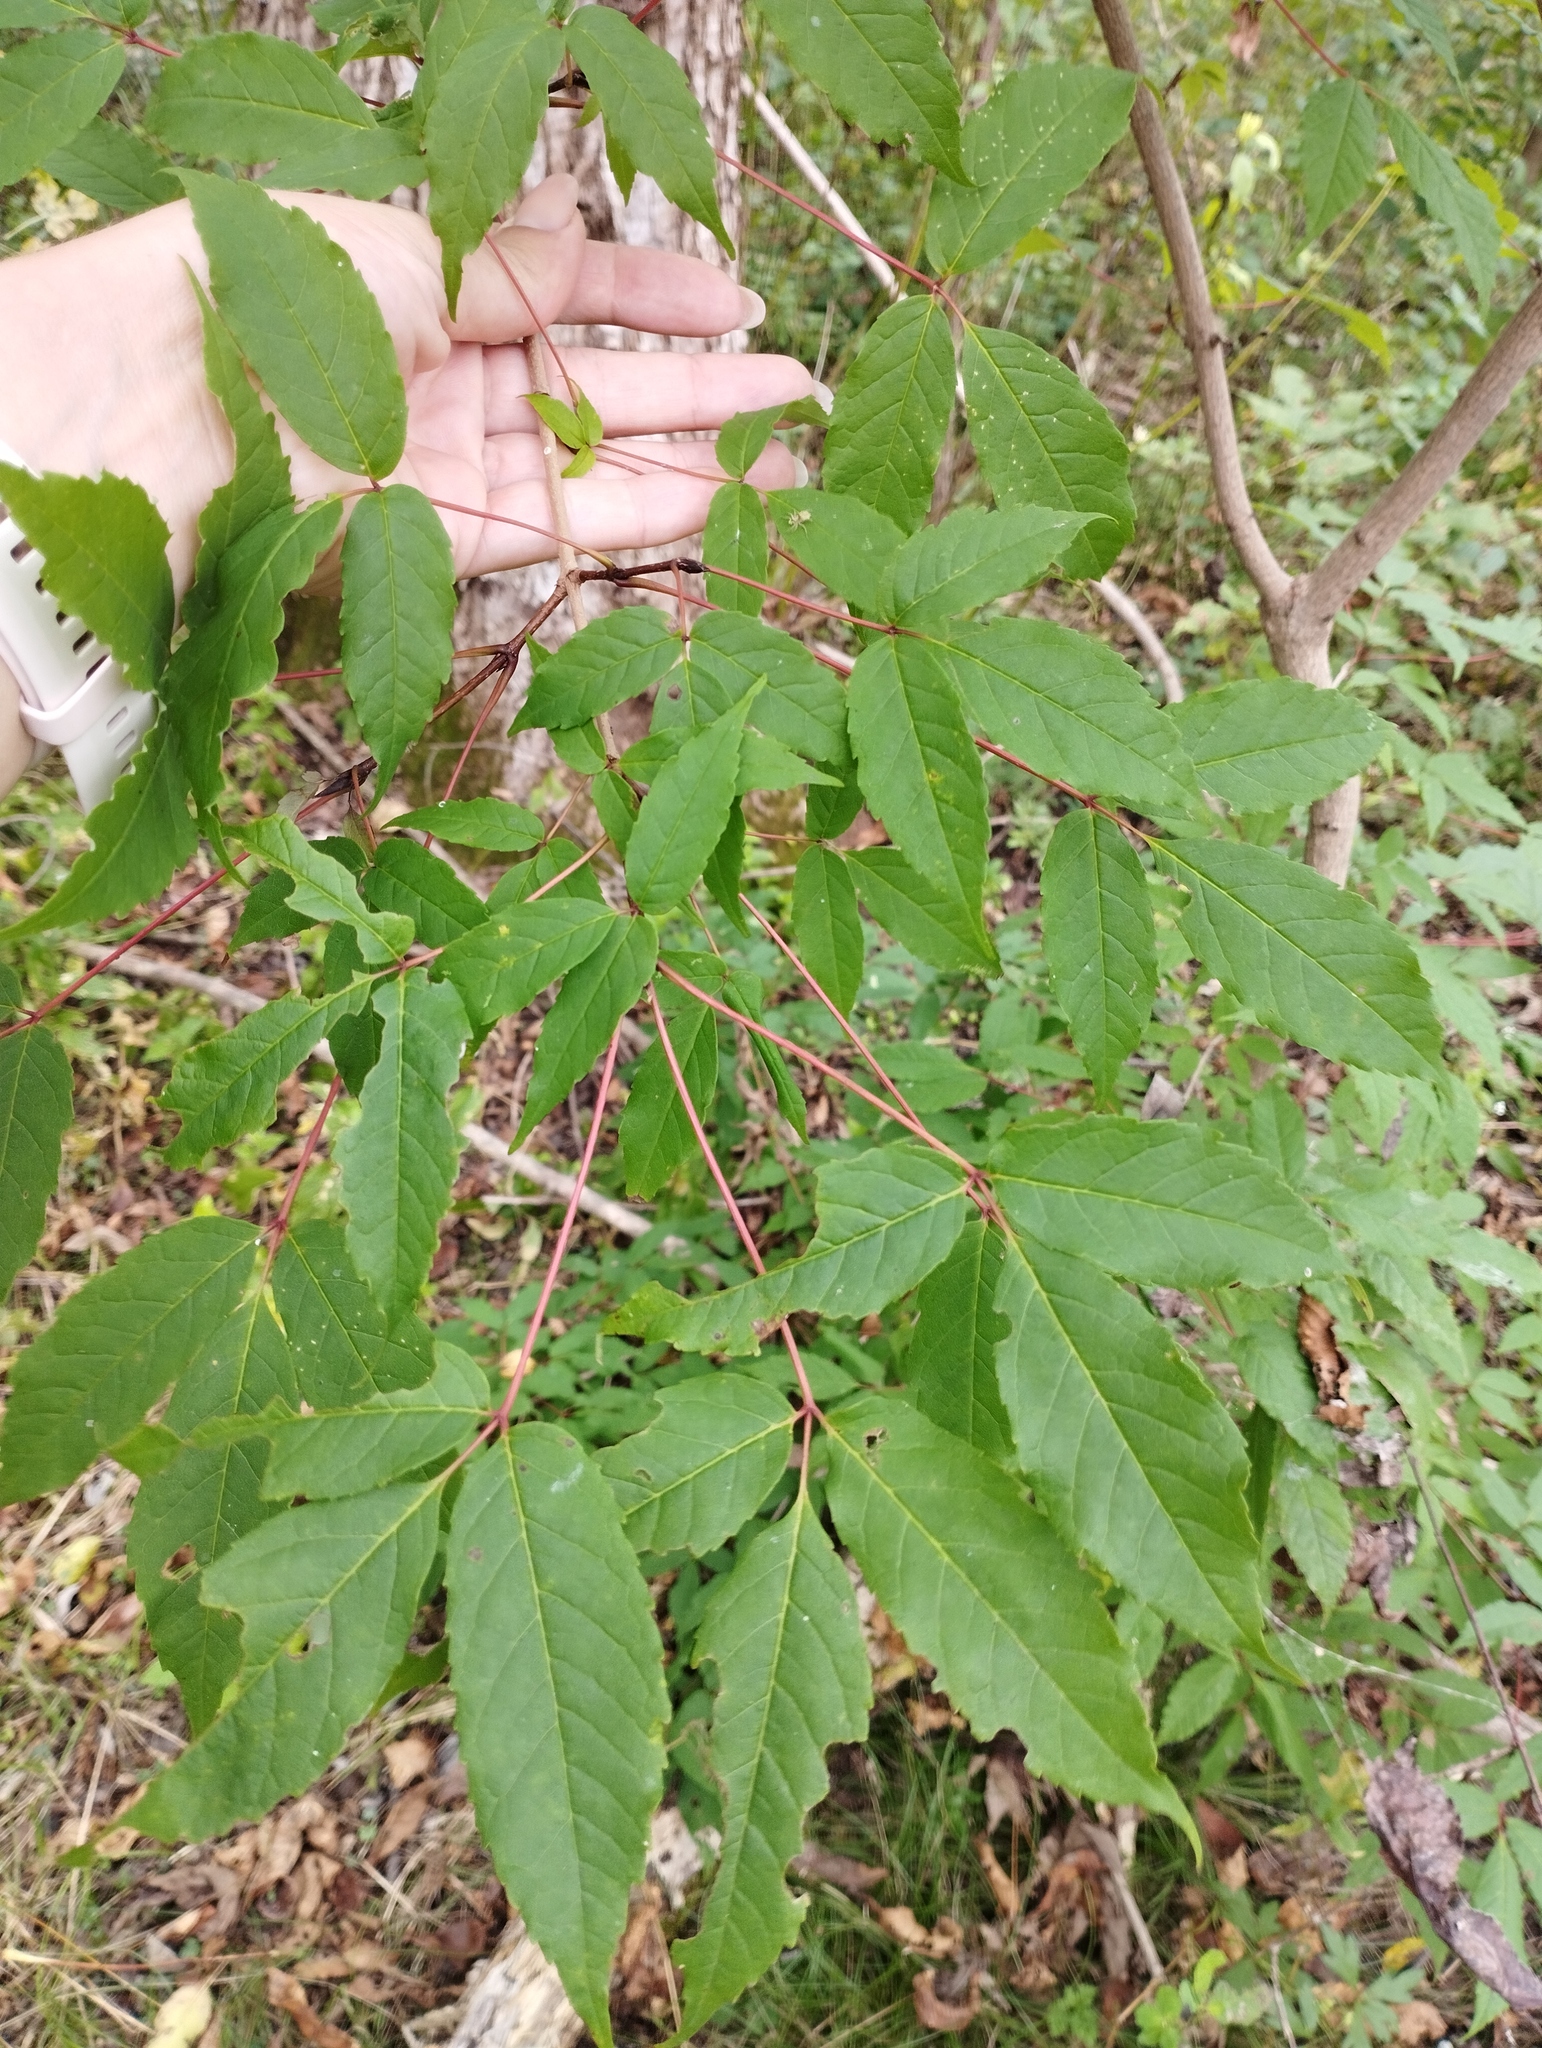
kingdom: Plantae
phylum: Tracheophyta
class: Magnoliopsida
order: Sapindales
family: Sapindaceae
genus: Acer
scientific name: Acer mandshuricum
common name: Manchurian maple
